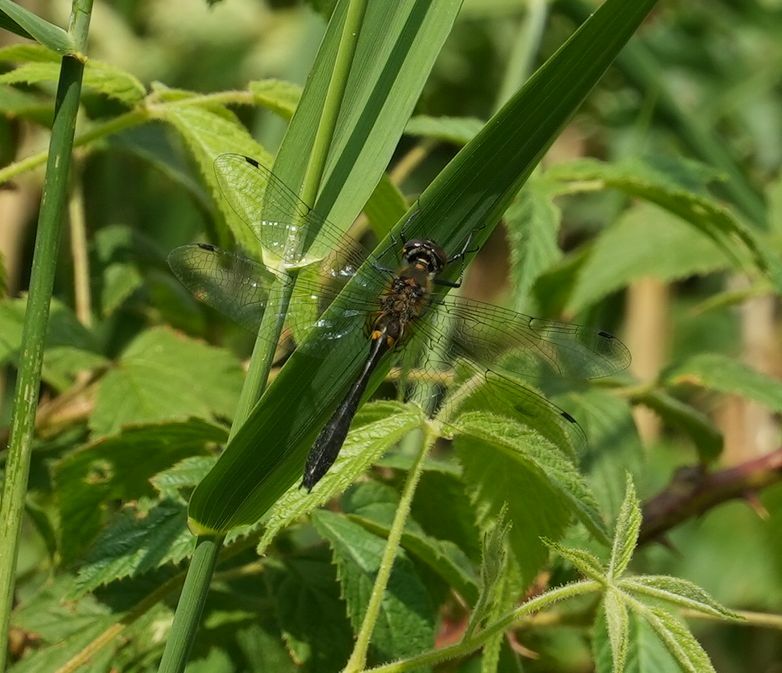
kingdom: Animalia
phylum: Arthropoda
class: Insecta
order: Odonata
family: Corduliidae
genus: Dorocordulia
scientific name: Dorocordulia libera
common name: Racket-tailed emerald
